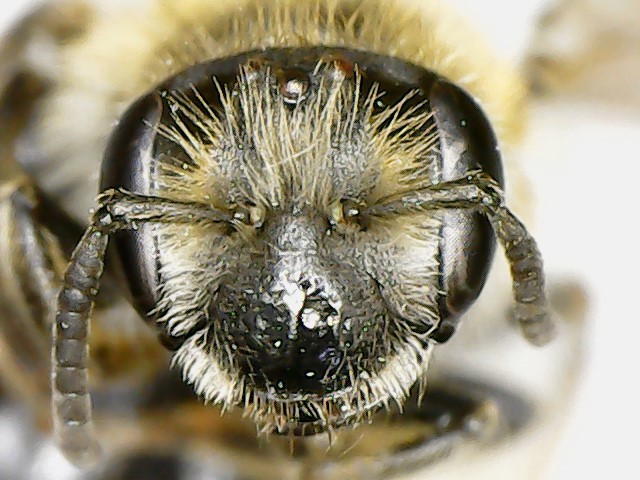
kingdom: Animalia
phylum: Arthropoda
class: Insecta
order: Hymenoptera
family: Andrenidae
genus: Andrena
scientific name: Andrena miserabilis
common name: Miserable mining bee
